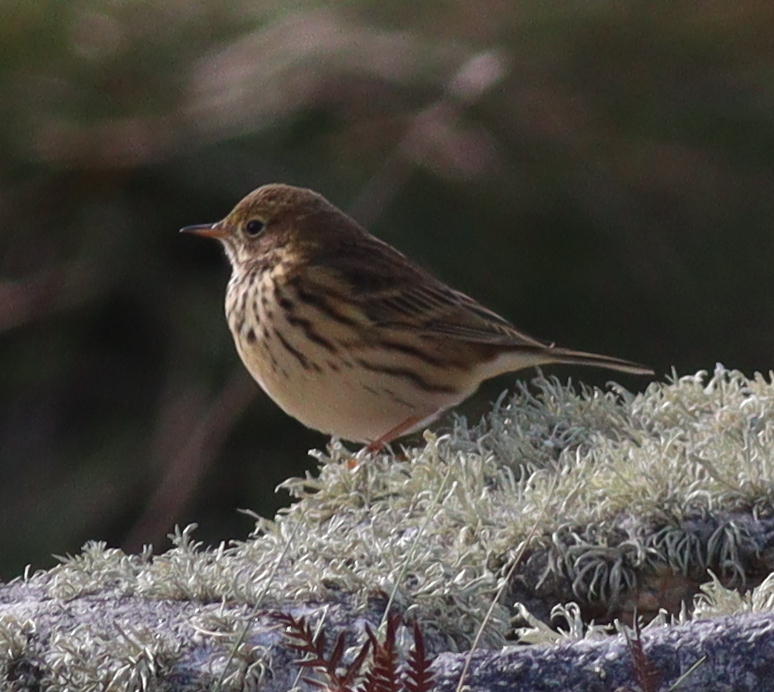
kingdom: Animalia
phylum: Chordata
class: Aves
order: Passeriformes
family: Motacillidae
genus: Anthus
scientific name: Anthus pratensis
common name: Meadow pipit
